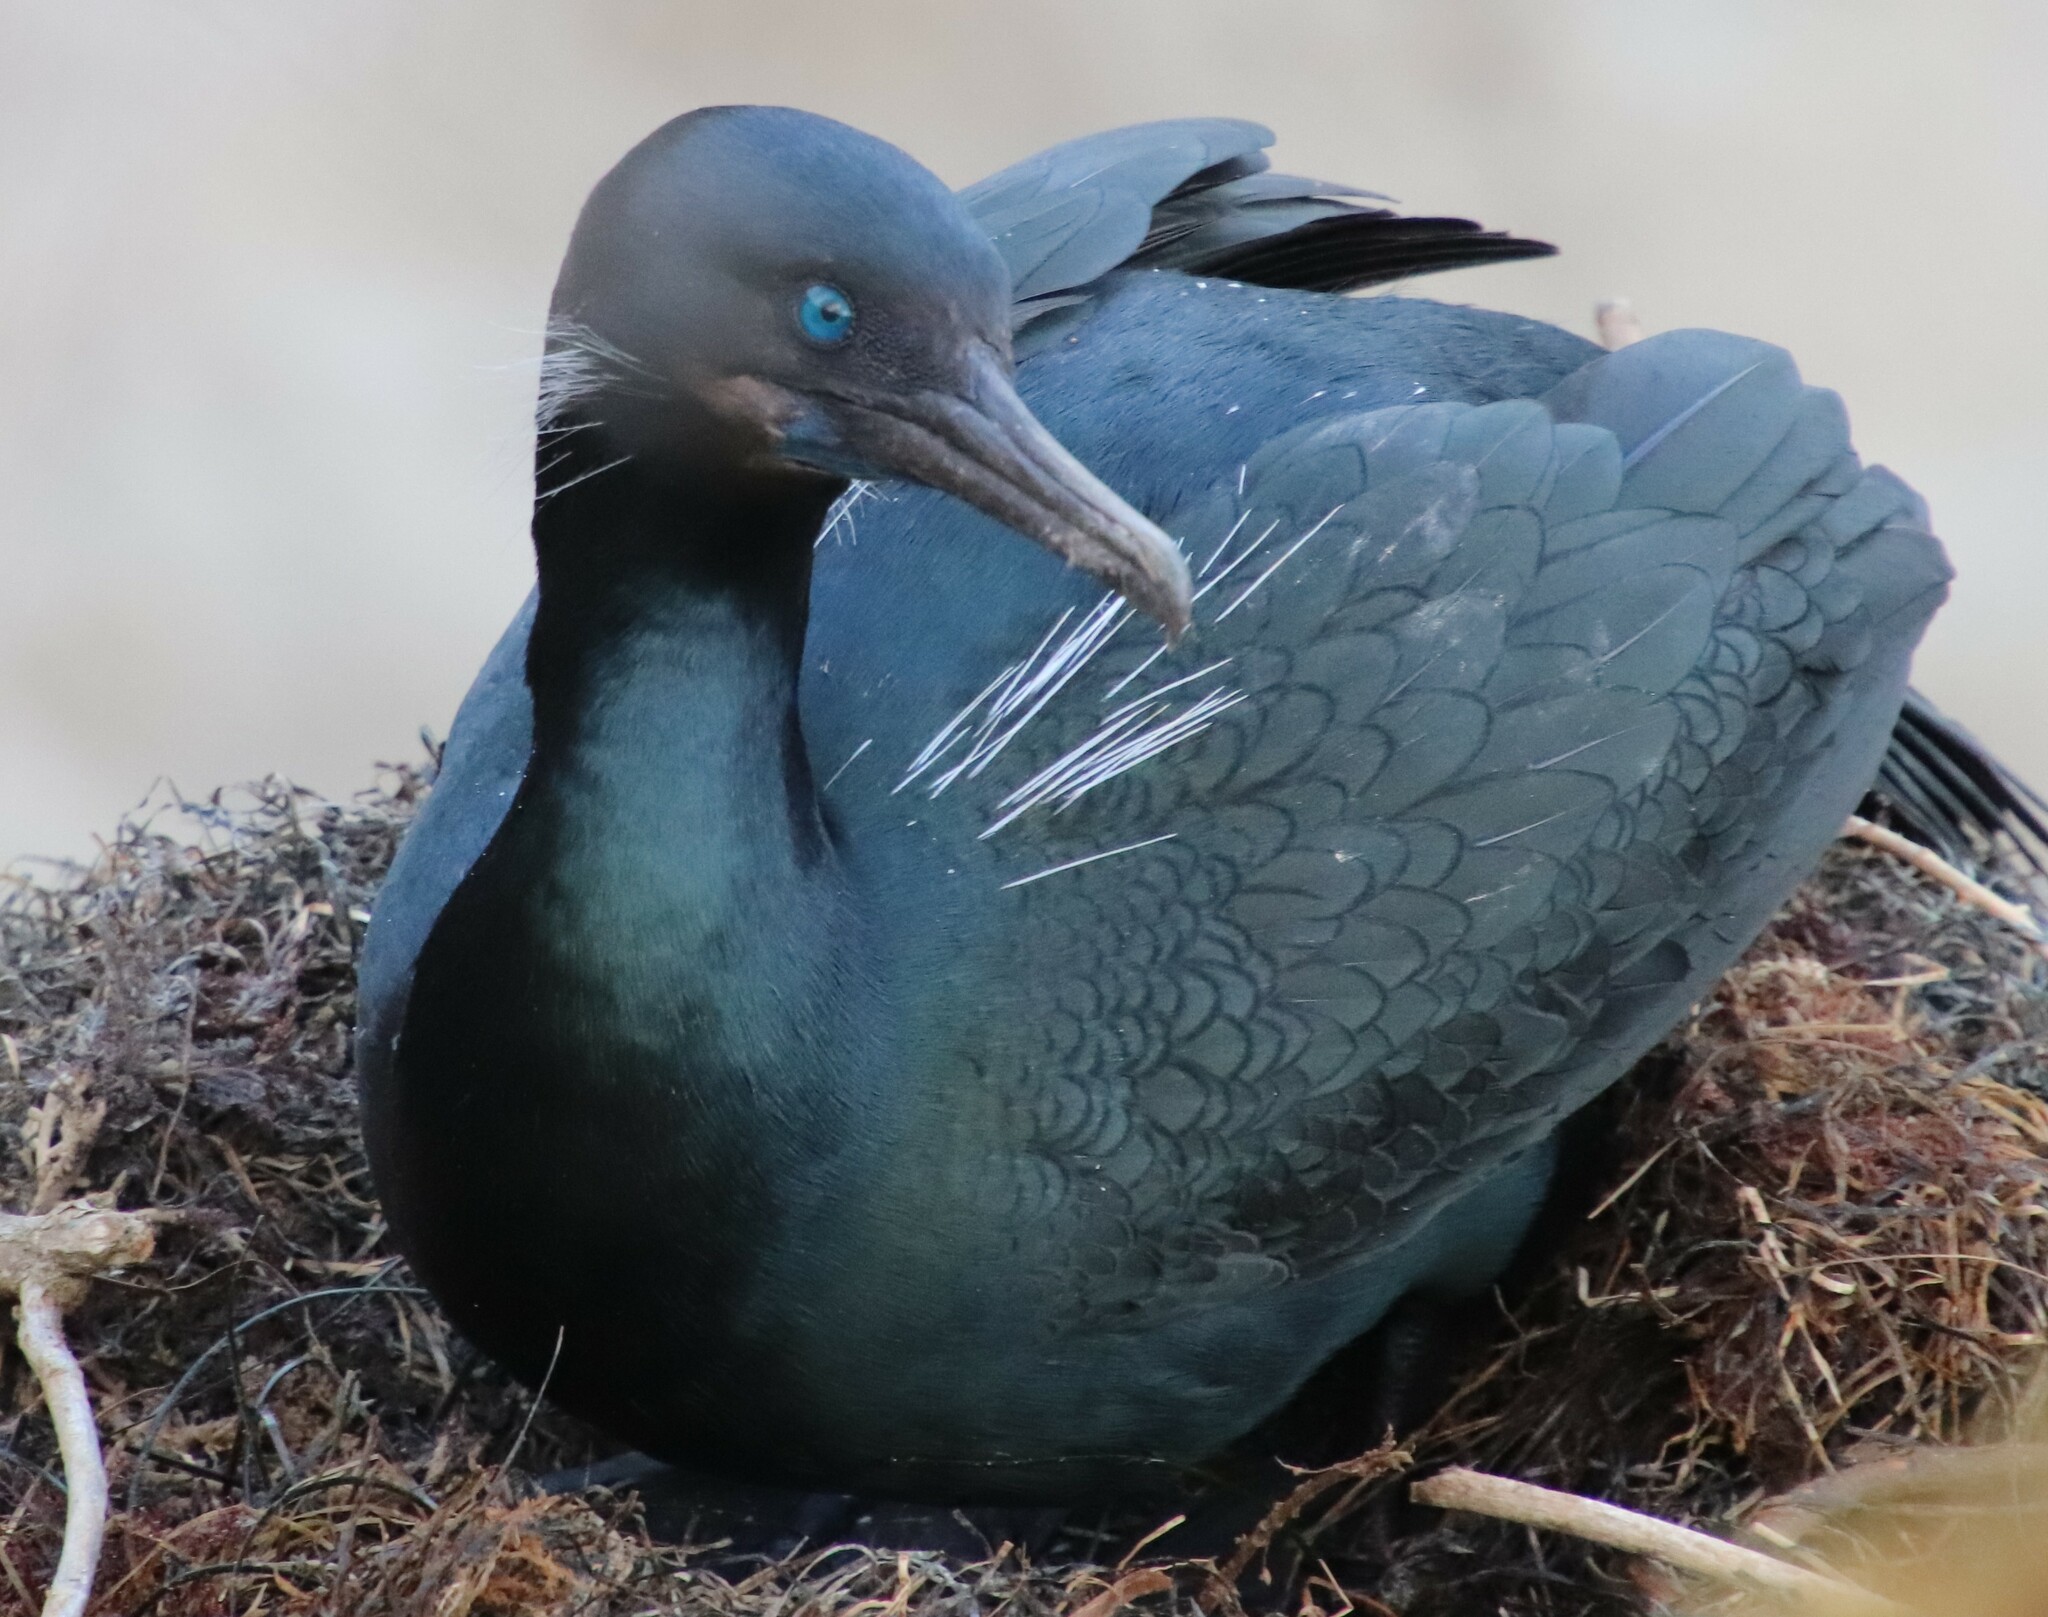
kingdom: Animalia
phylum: Chordata
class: Aves
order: Suliformes
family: Phalacrocoracidae
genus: Urile
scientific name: Urile penicillatus
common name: Brandt's cormorant
